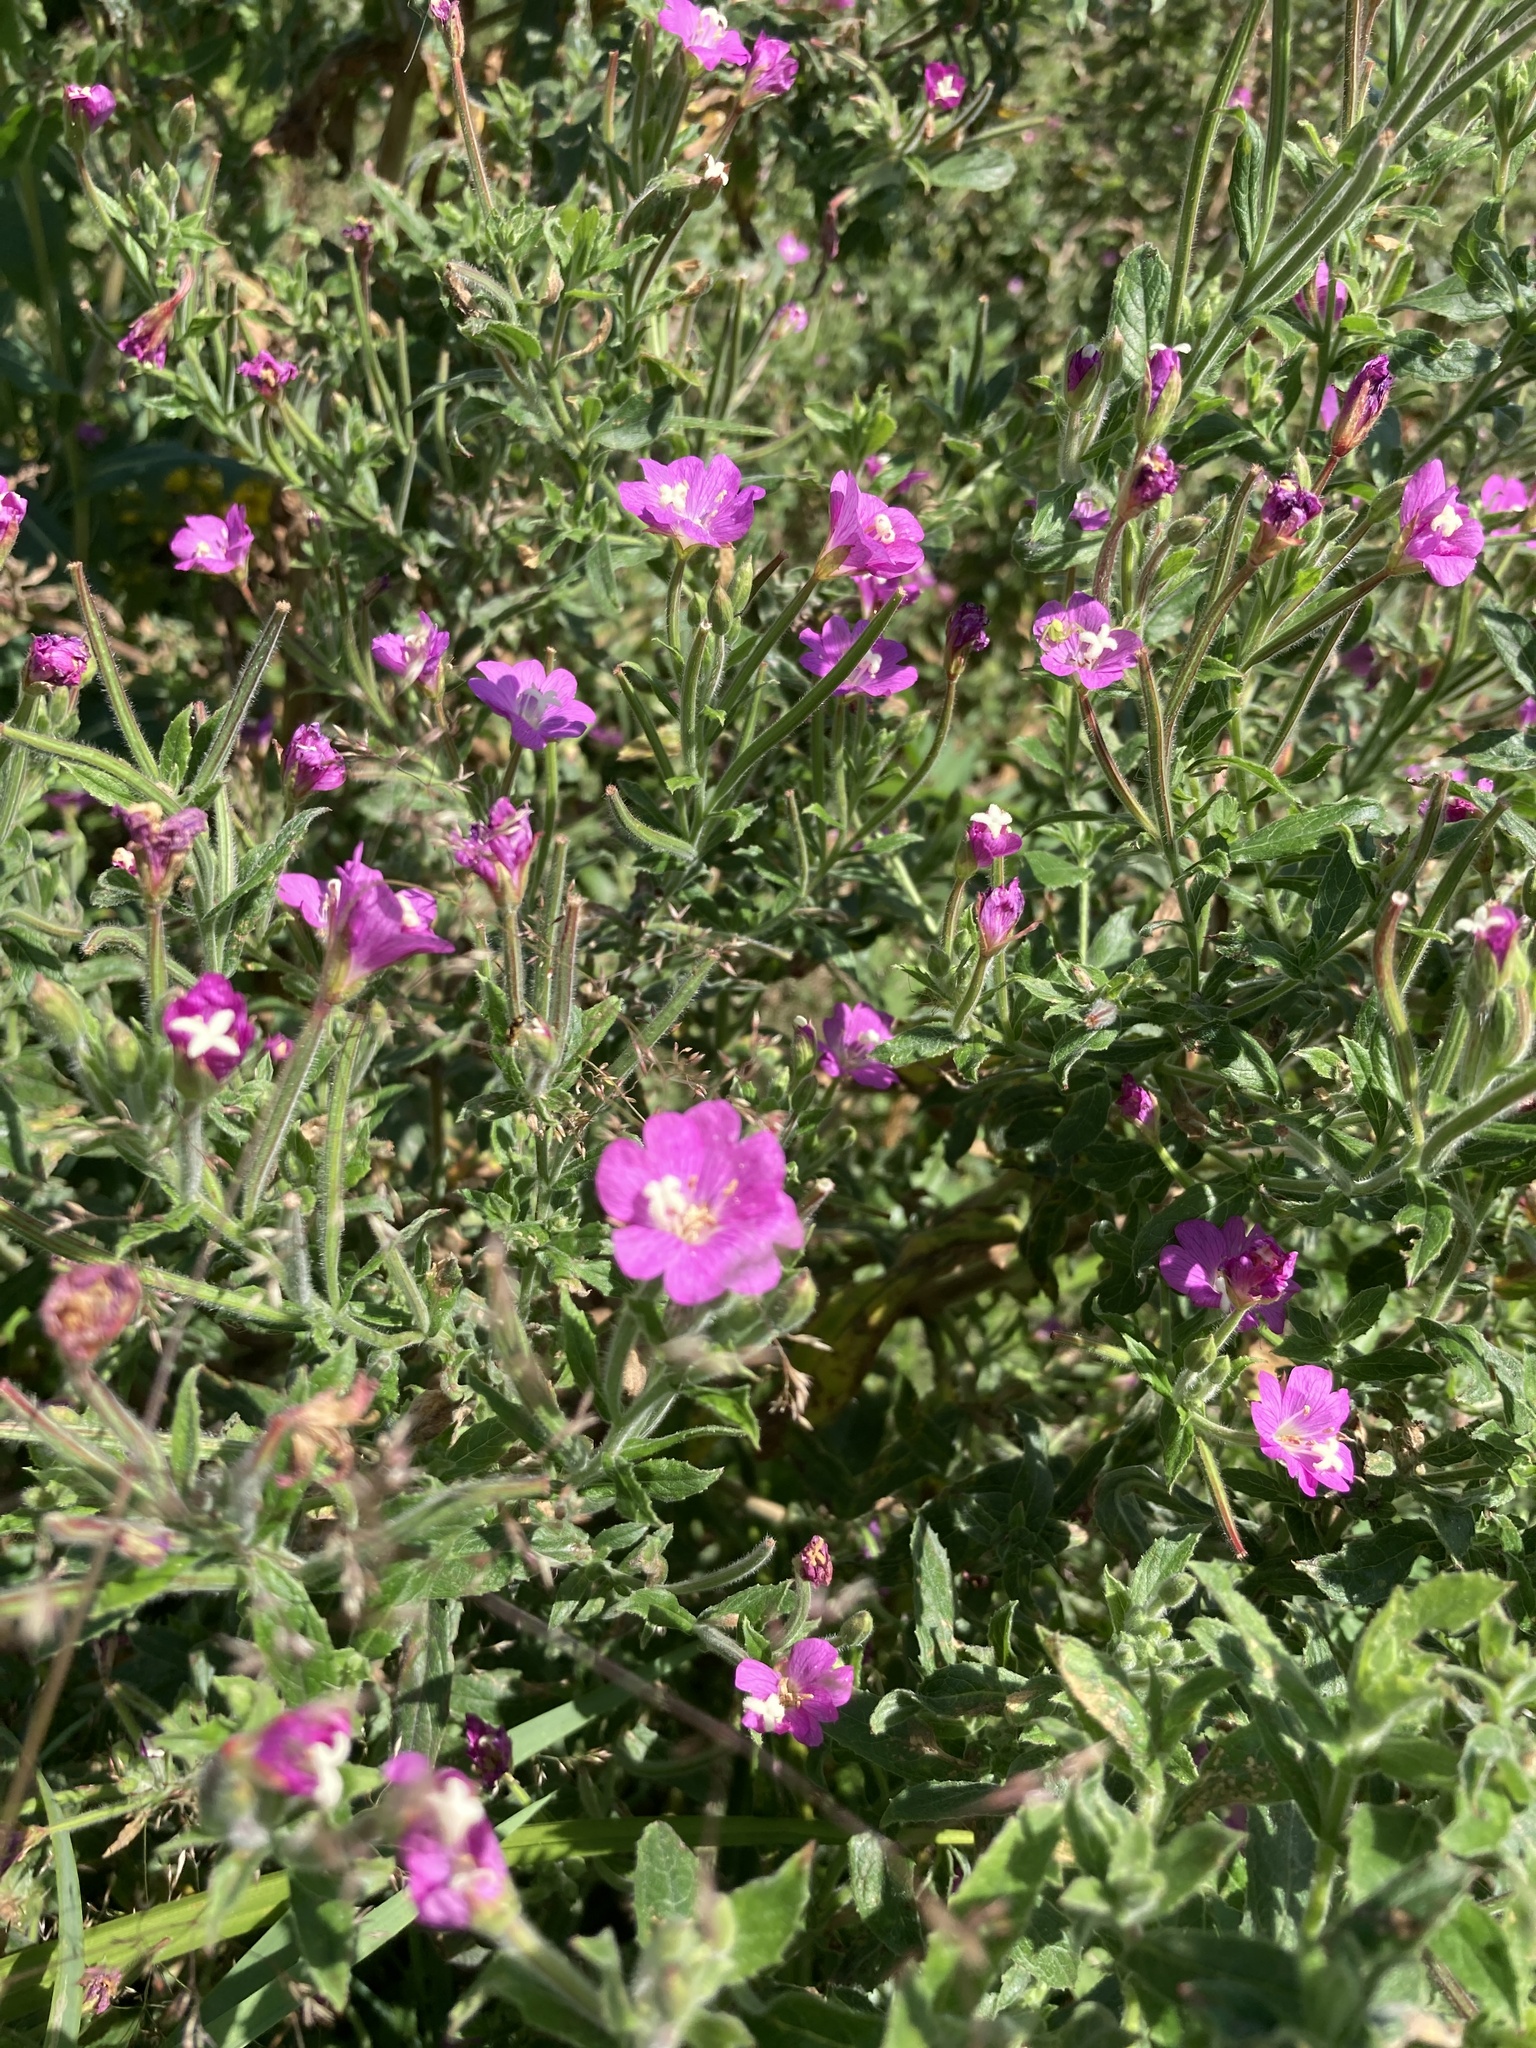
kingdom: Plantae
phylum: Tracheophyta
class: Magnoliopsida
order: Myrtales
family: Onagraceae
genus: Epilobium
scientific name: Epilobium hirsutum
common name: Great willowherb
